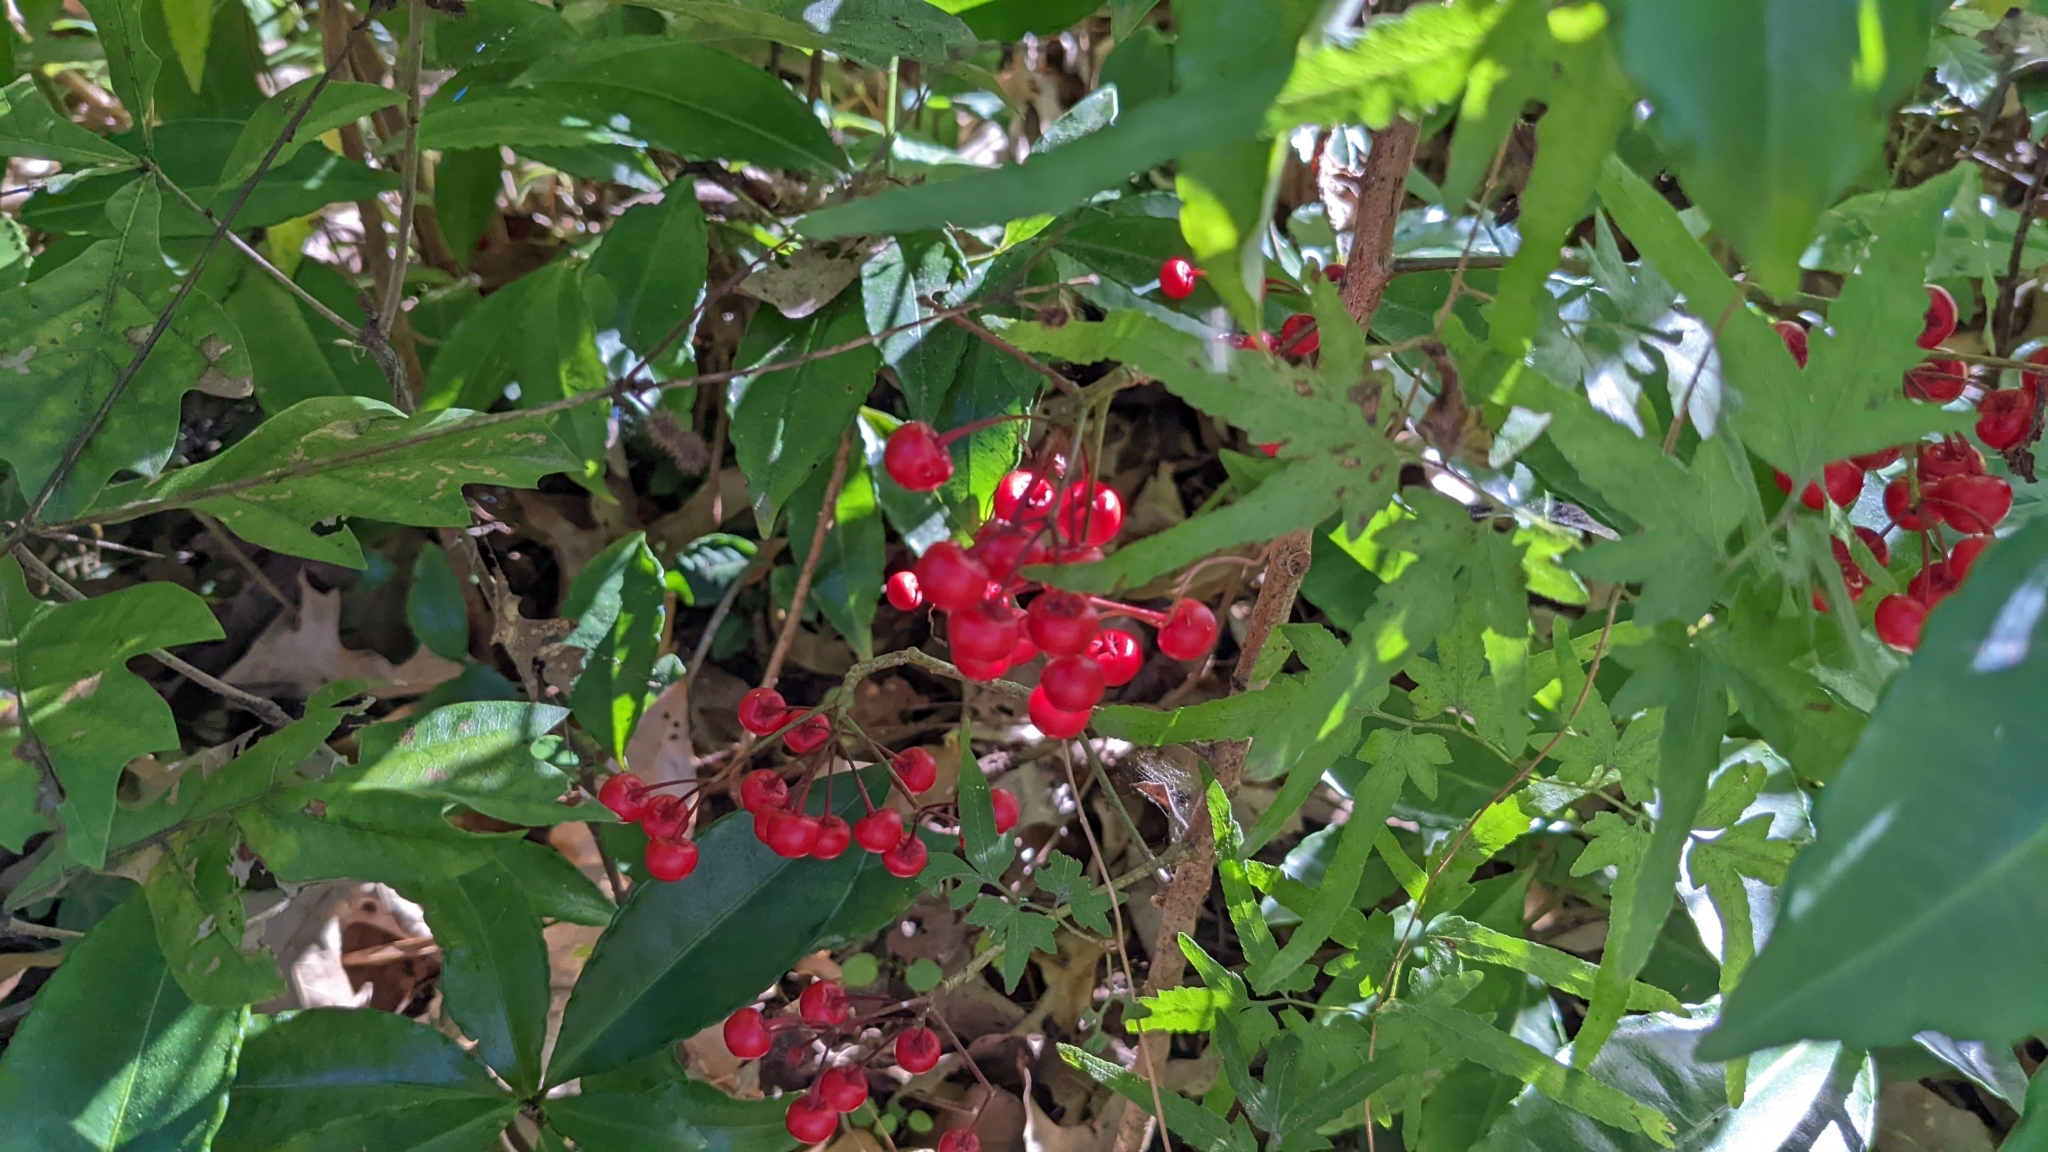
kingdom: Plantae
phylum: Tracheophyta
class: Magnoliopsida
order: Ericales
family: Primulaceae
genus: Ardisia
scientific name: Ardisia crenata
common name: Hen's eyes
